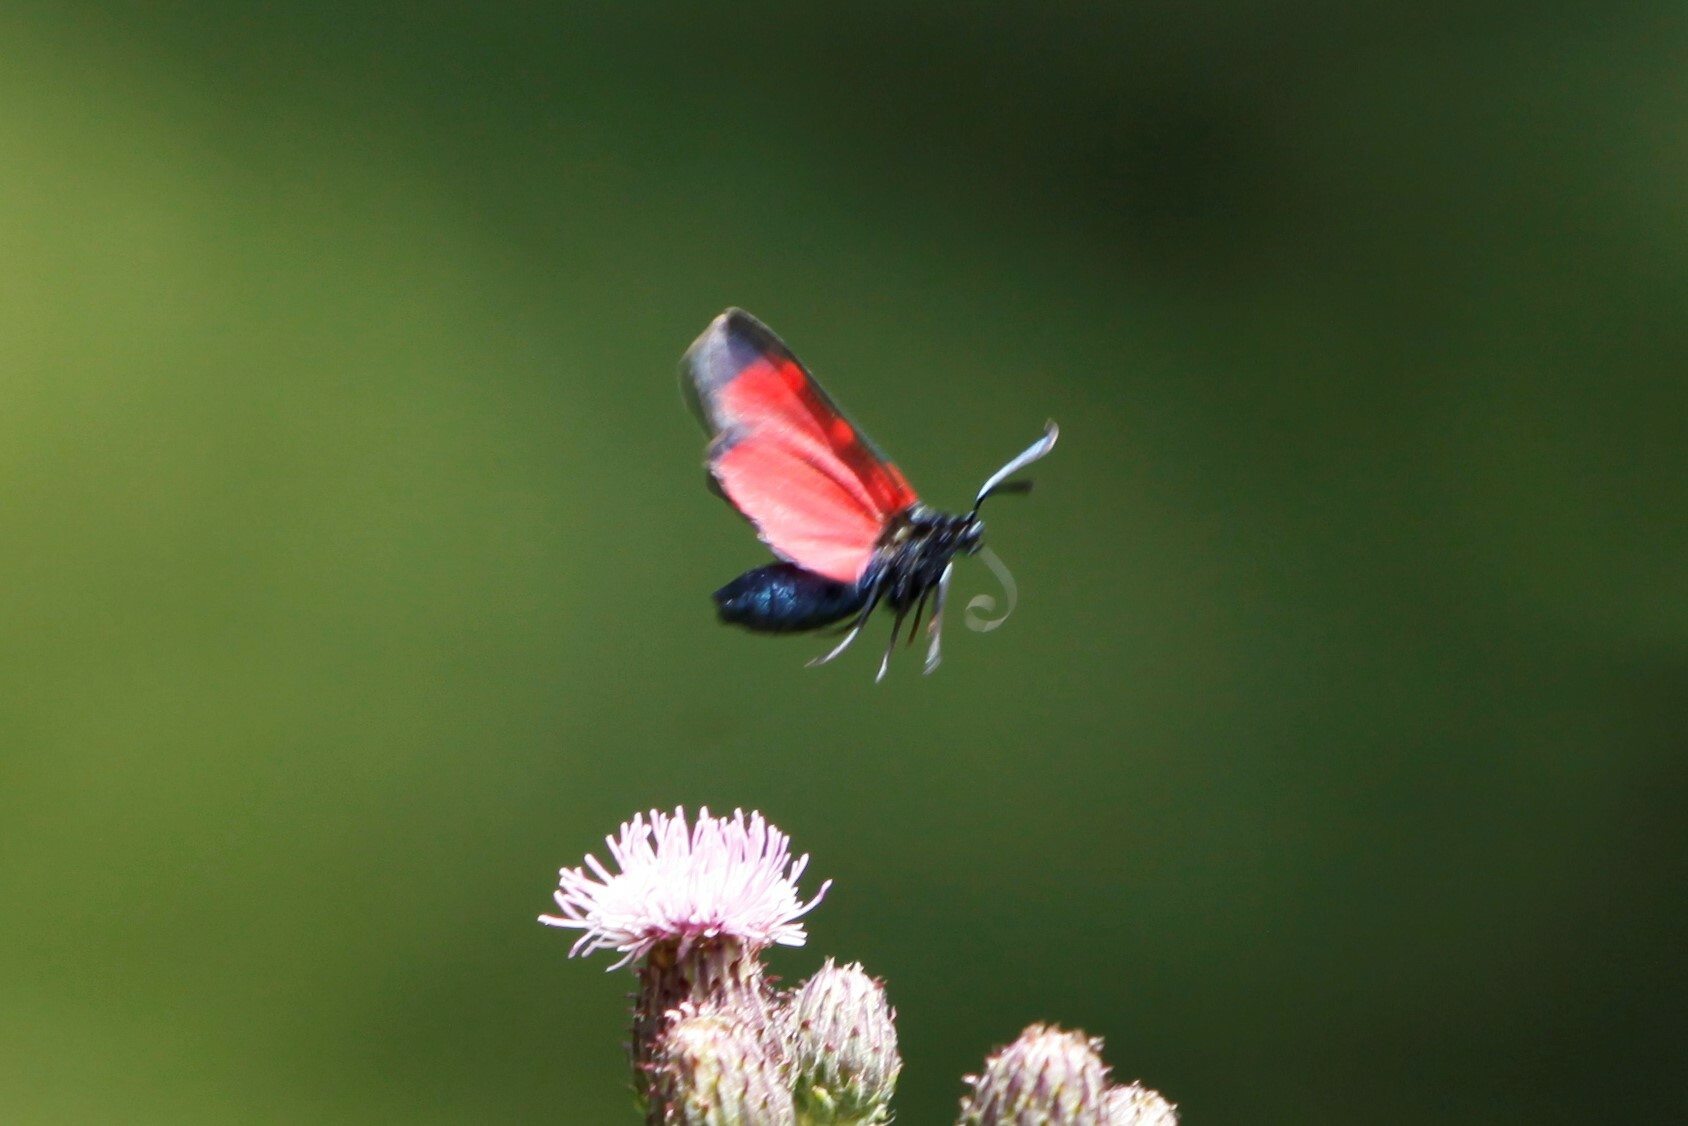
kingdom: Animalia
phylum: Arthropoda
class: Insecta
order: Lepidoptera
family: Zygaenidae
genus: Zygaena
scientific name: Zygaena transalpina
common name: Southern six spot burnet
